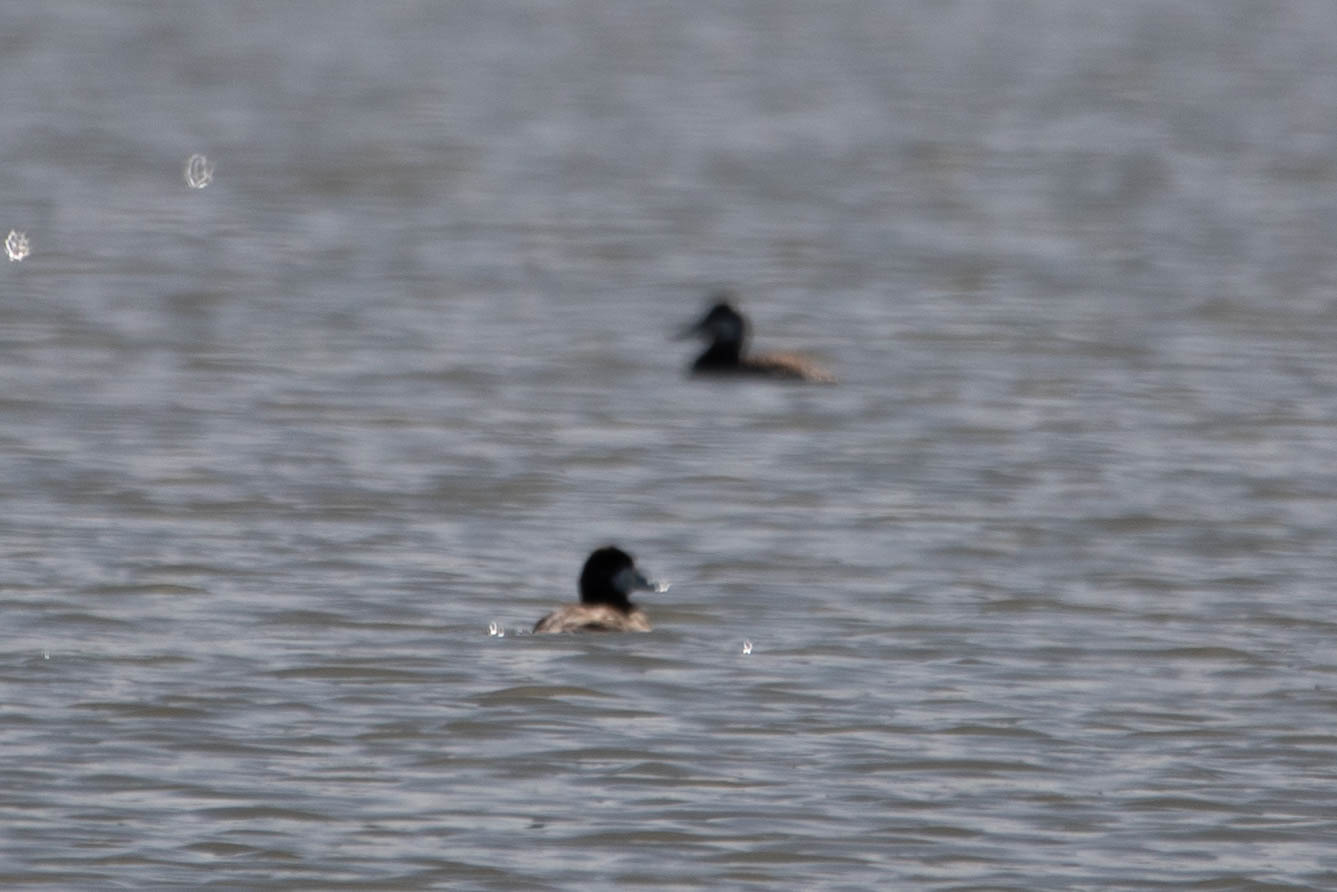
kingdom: Animalia
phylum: Chordata
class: Aves
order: Anseriformes
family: Anatidae
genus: Oxyura
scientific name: Oxyura jamaicensis
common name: Ruddy duck
